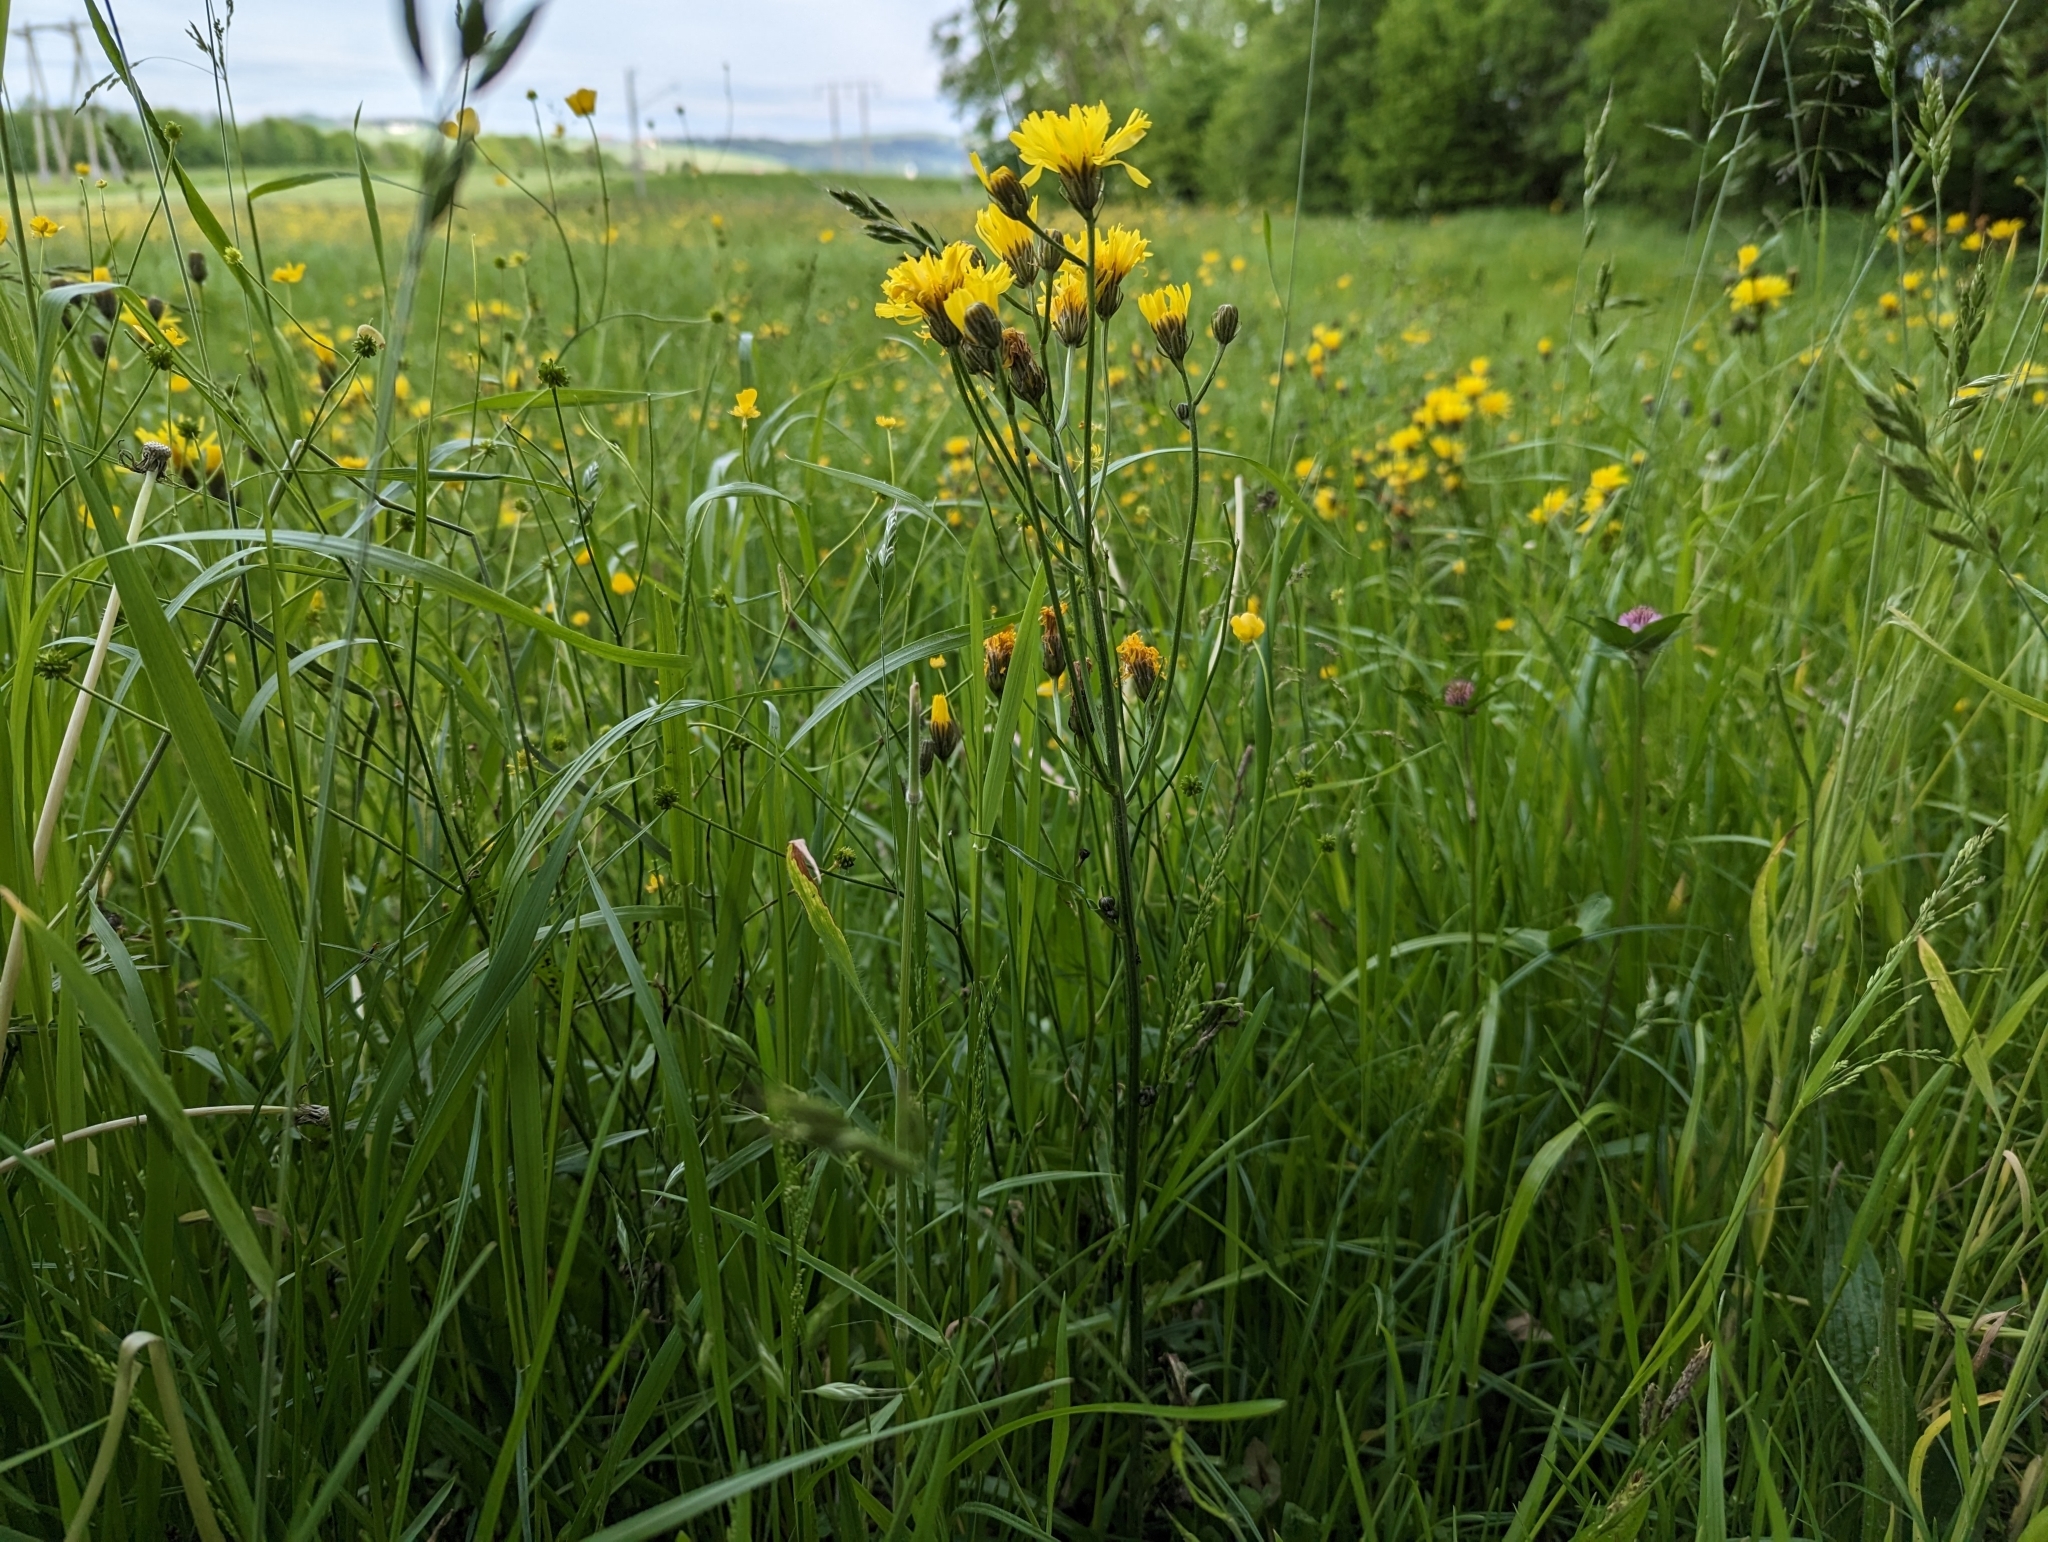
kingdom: Plantae
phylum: Tracheophyta
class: Magnoliopsida
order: Asterales
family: Asteraceae
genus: Crepis
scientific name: Crepis biennis
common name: Rough hawk's-beard
